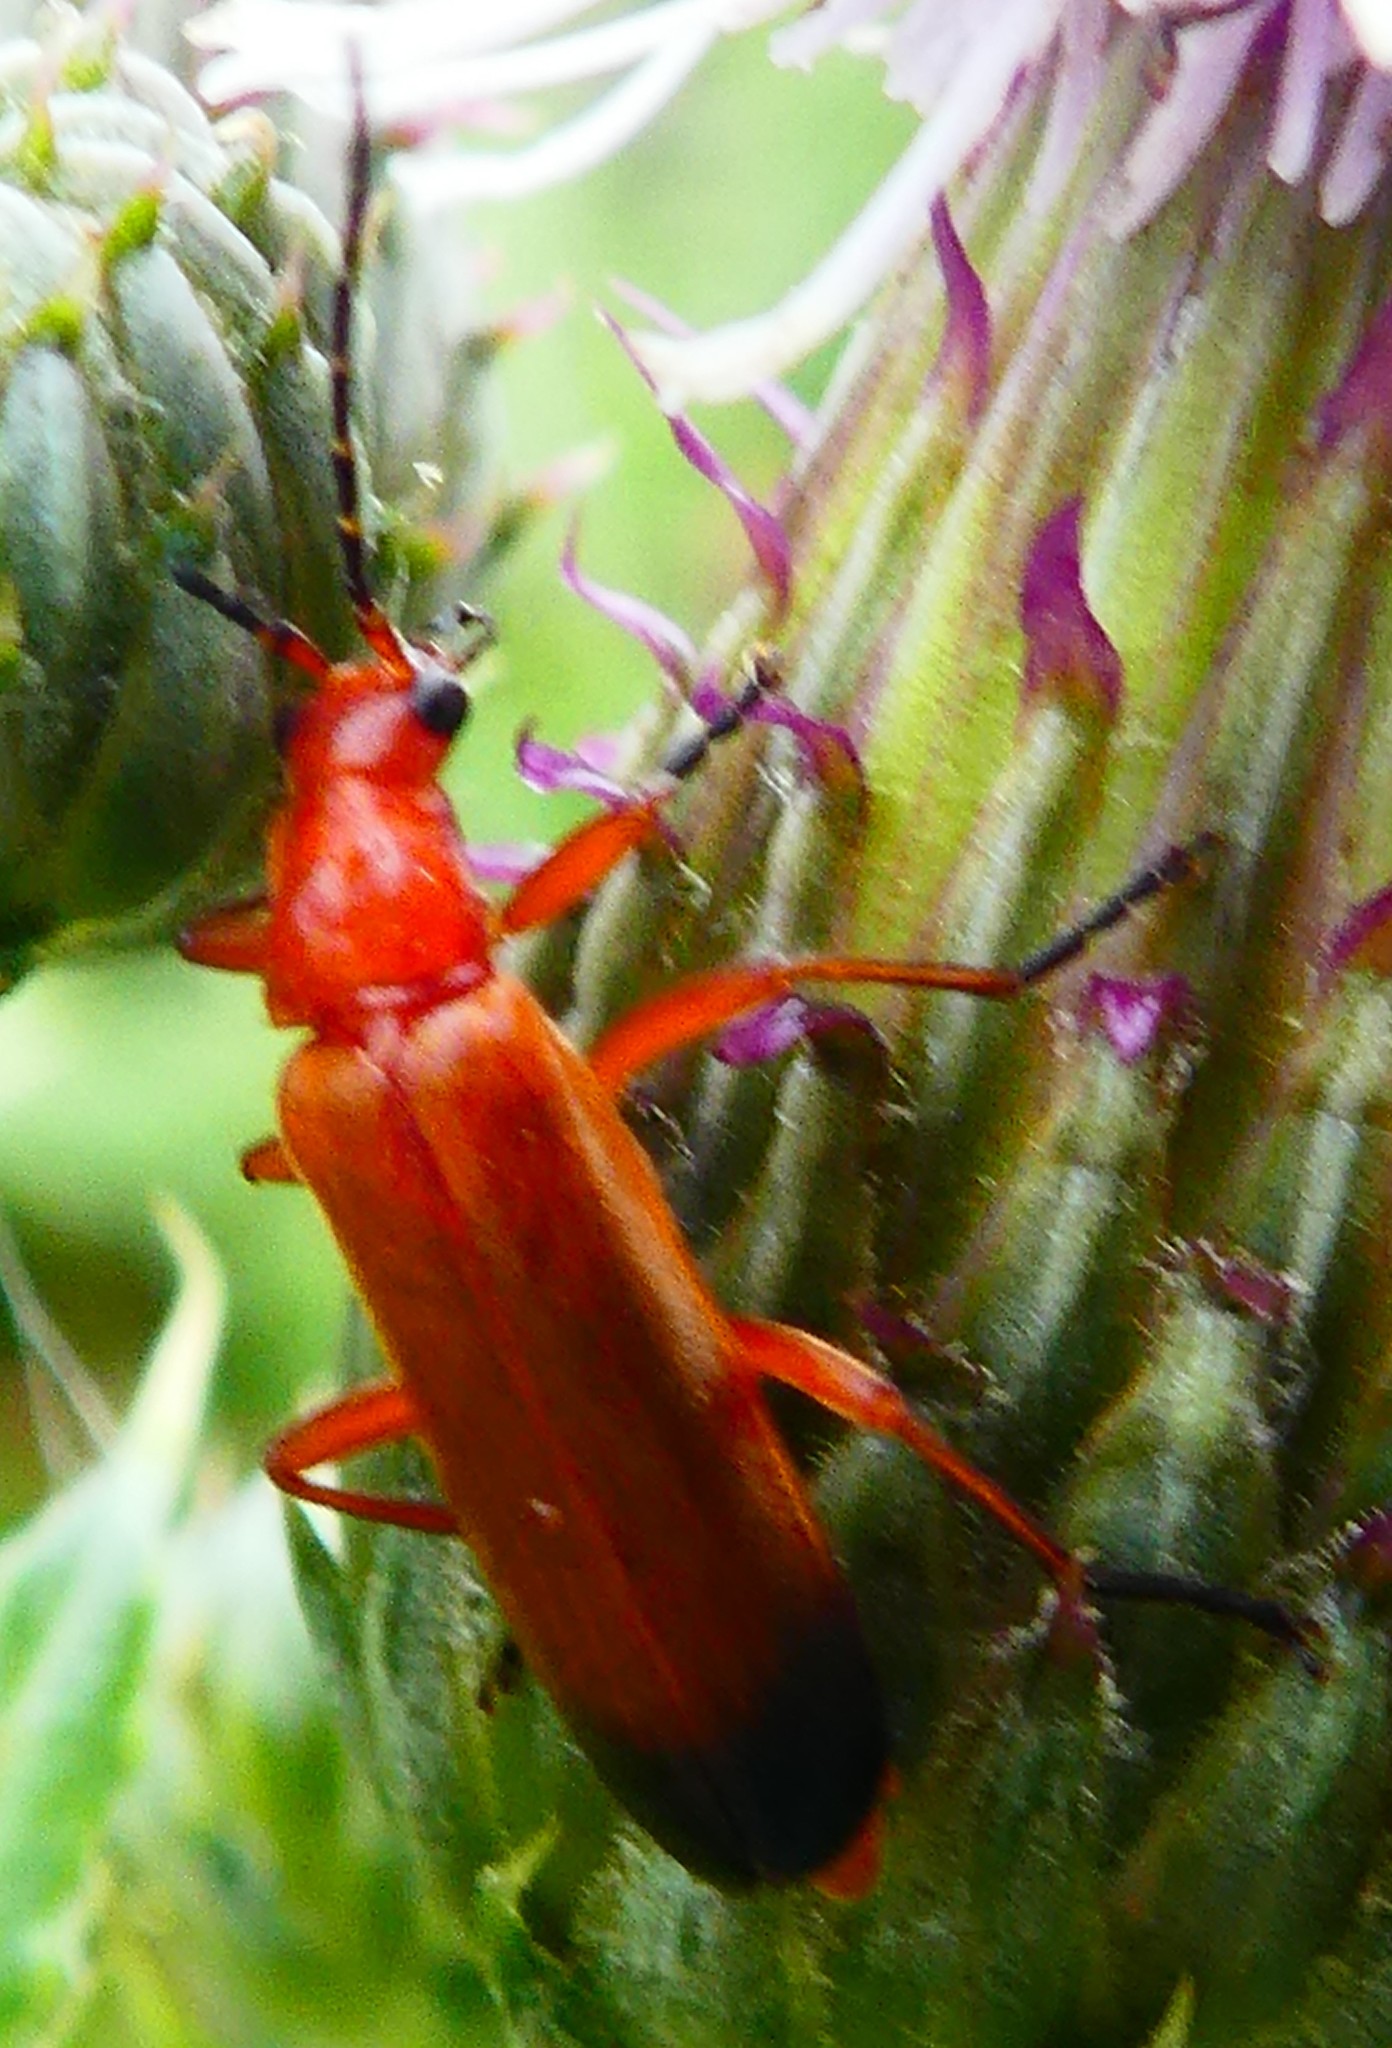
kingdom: Animalia
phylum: Arthropoda
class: Insecta
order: Coleoptera
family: Cantharidae
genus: Rhagonycha
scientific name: Rhagonycha fulva
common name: Common red soldier beetle
